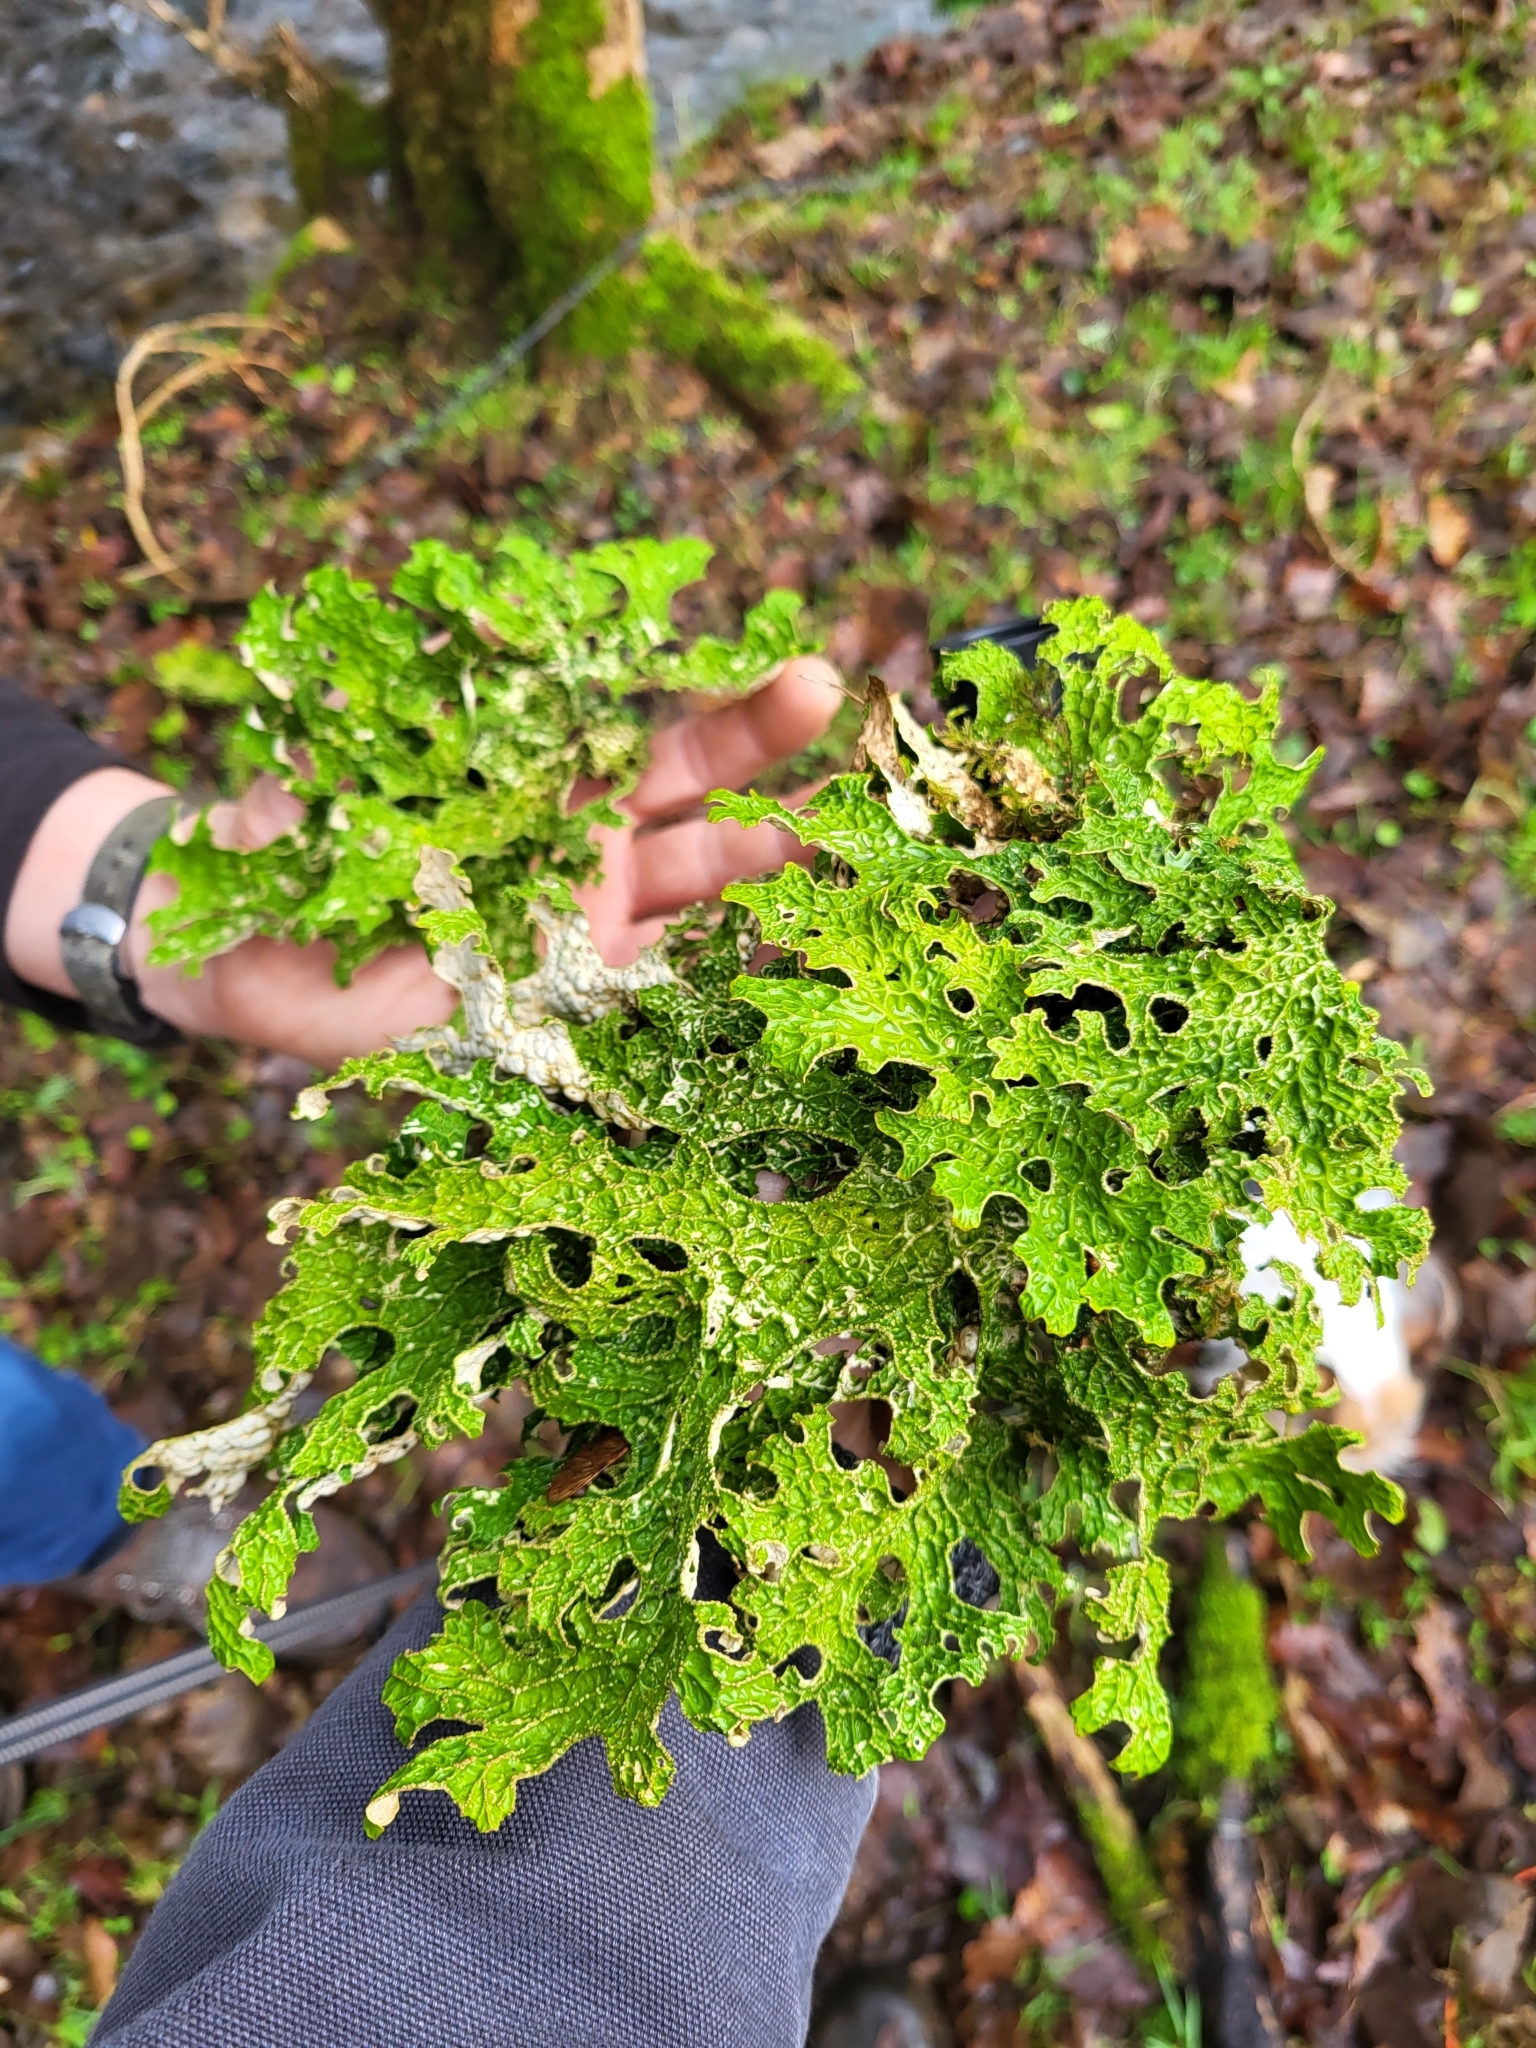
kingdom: Fungi
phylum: Ascomycota
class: Lecanoromycetes
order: Peltigerales
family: Lobariaceae
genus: Lobaria
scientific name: Lobaria pulmonaria
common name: Lungwort
